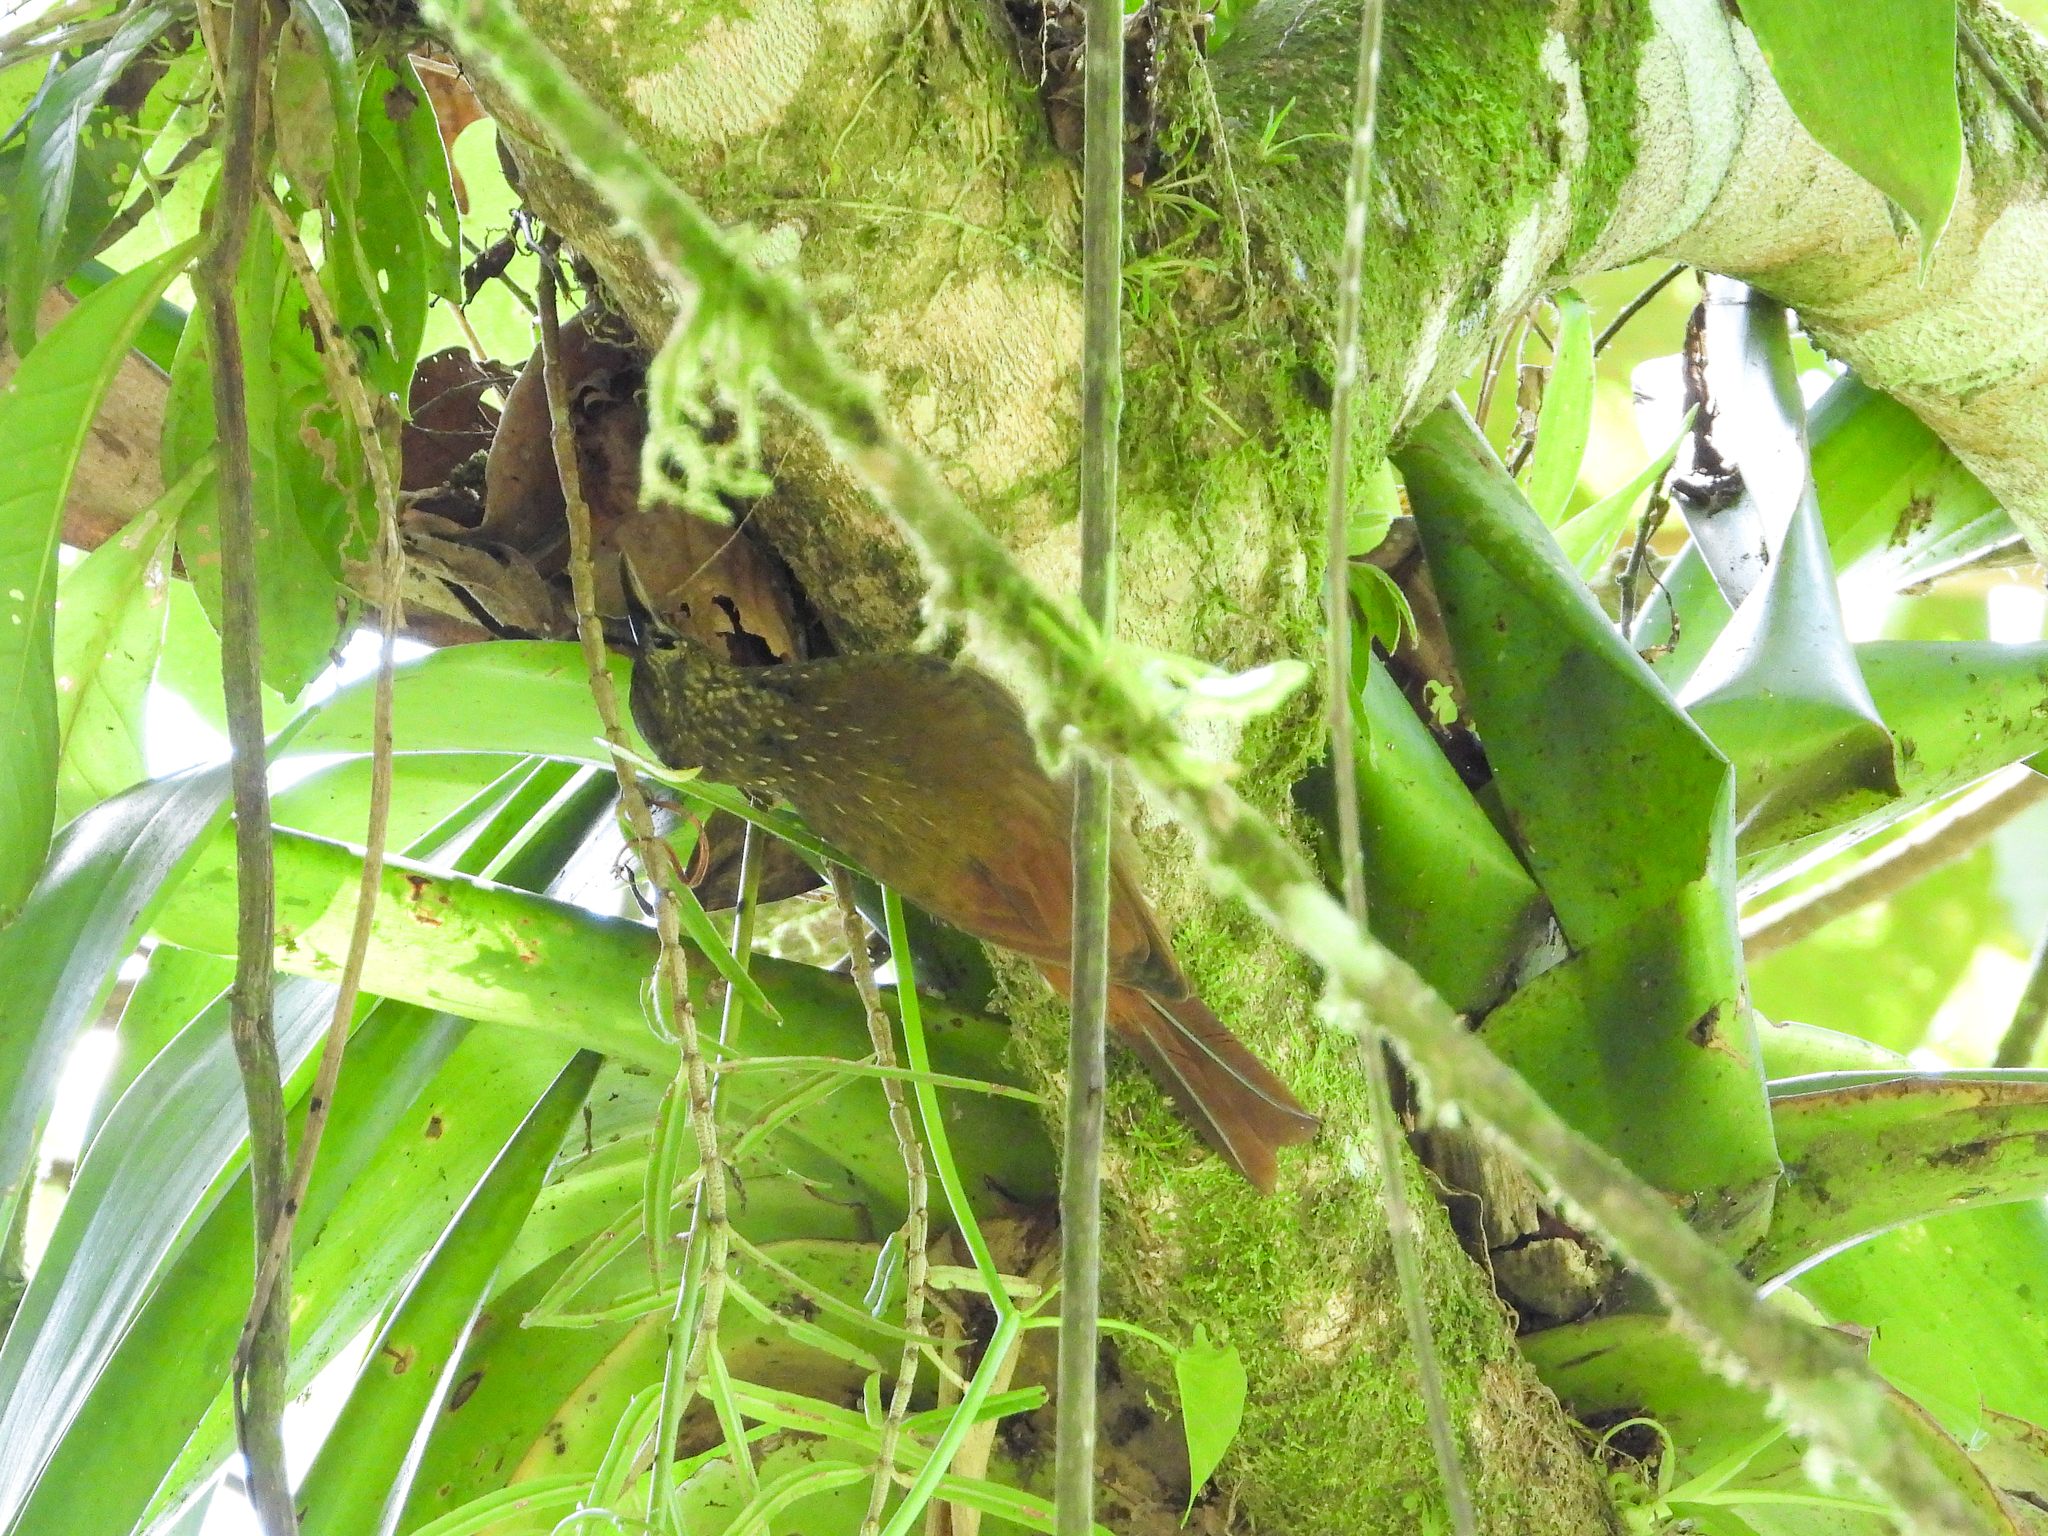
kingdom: Animalia
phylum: Chordata
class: Aves
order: Passeriformes
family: Furnariidae
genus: Xiphorhynchus
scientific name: Xiphorhynchus erythropygius
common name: Spotted woodcreeper
